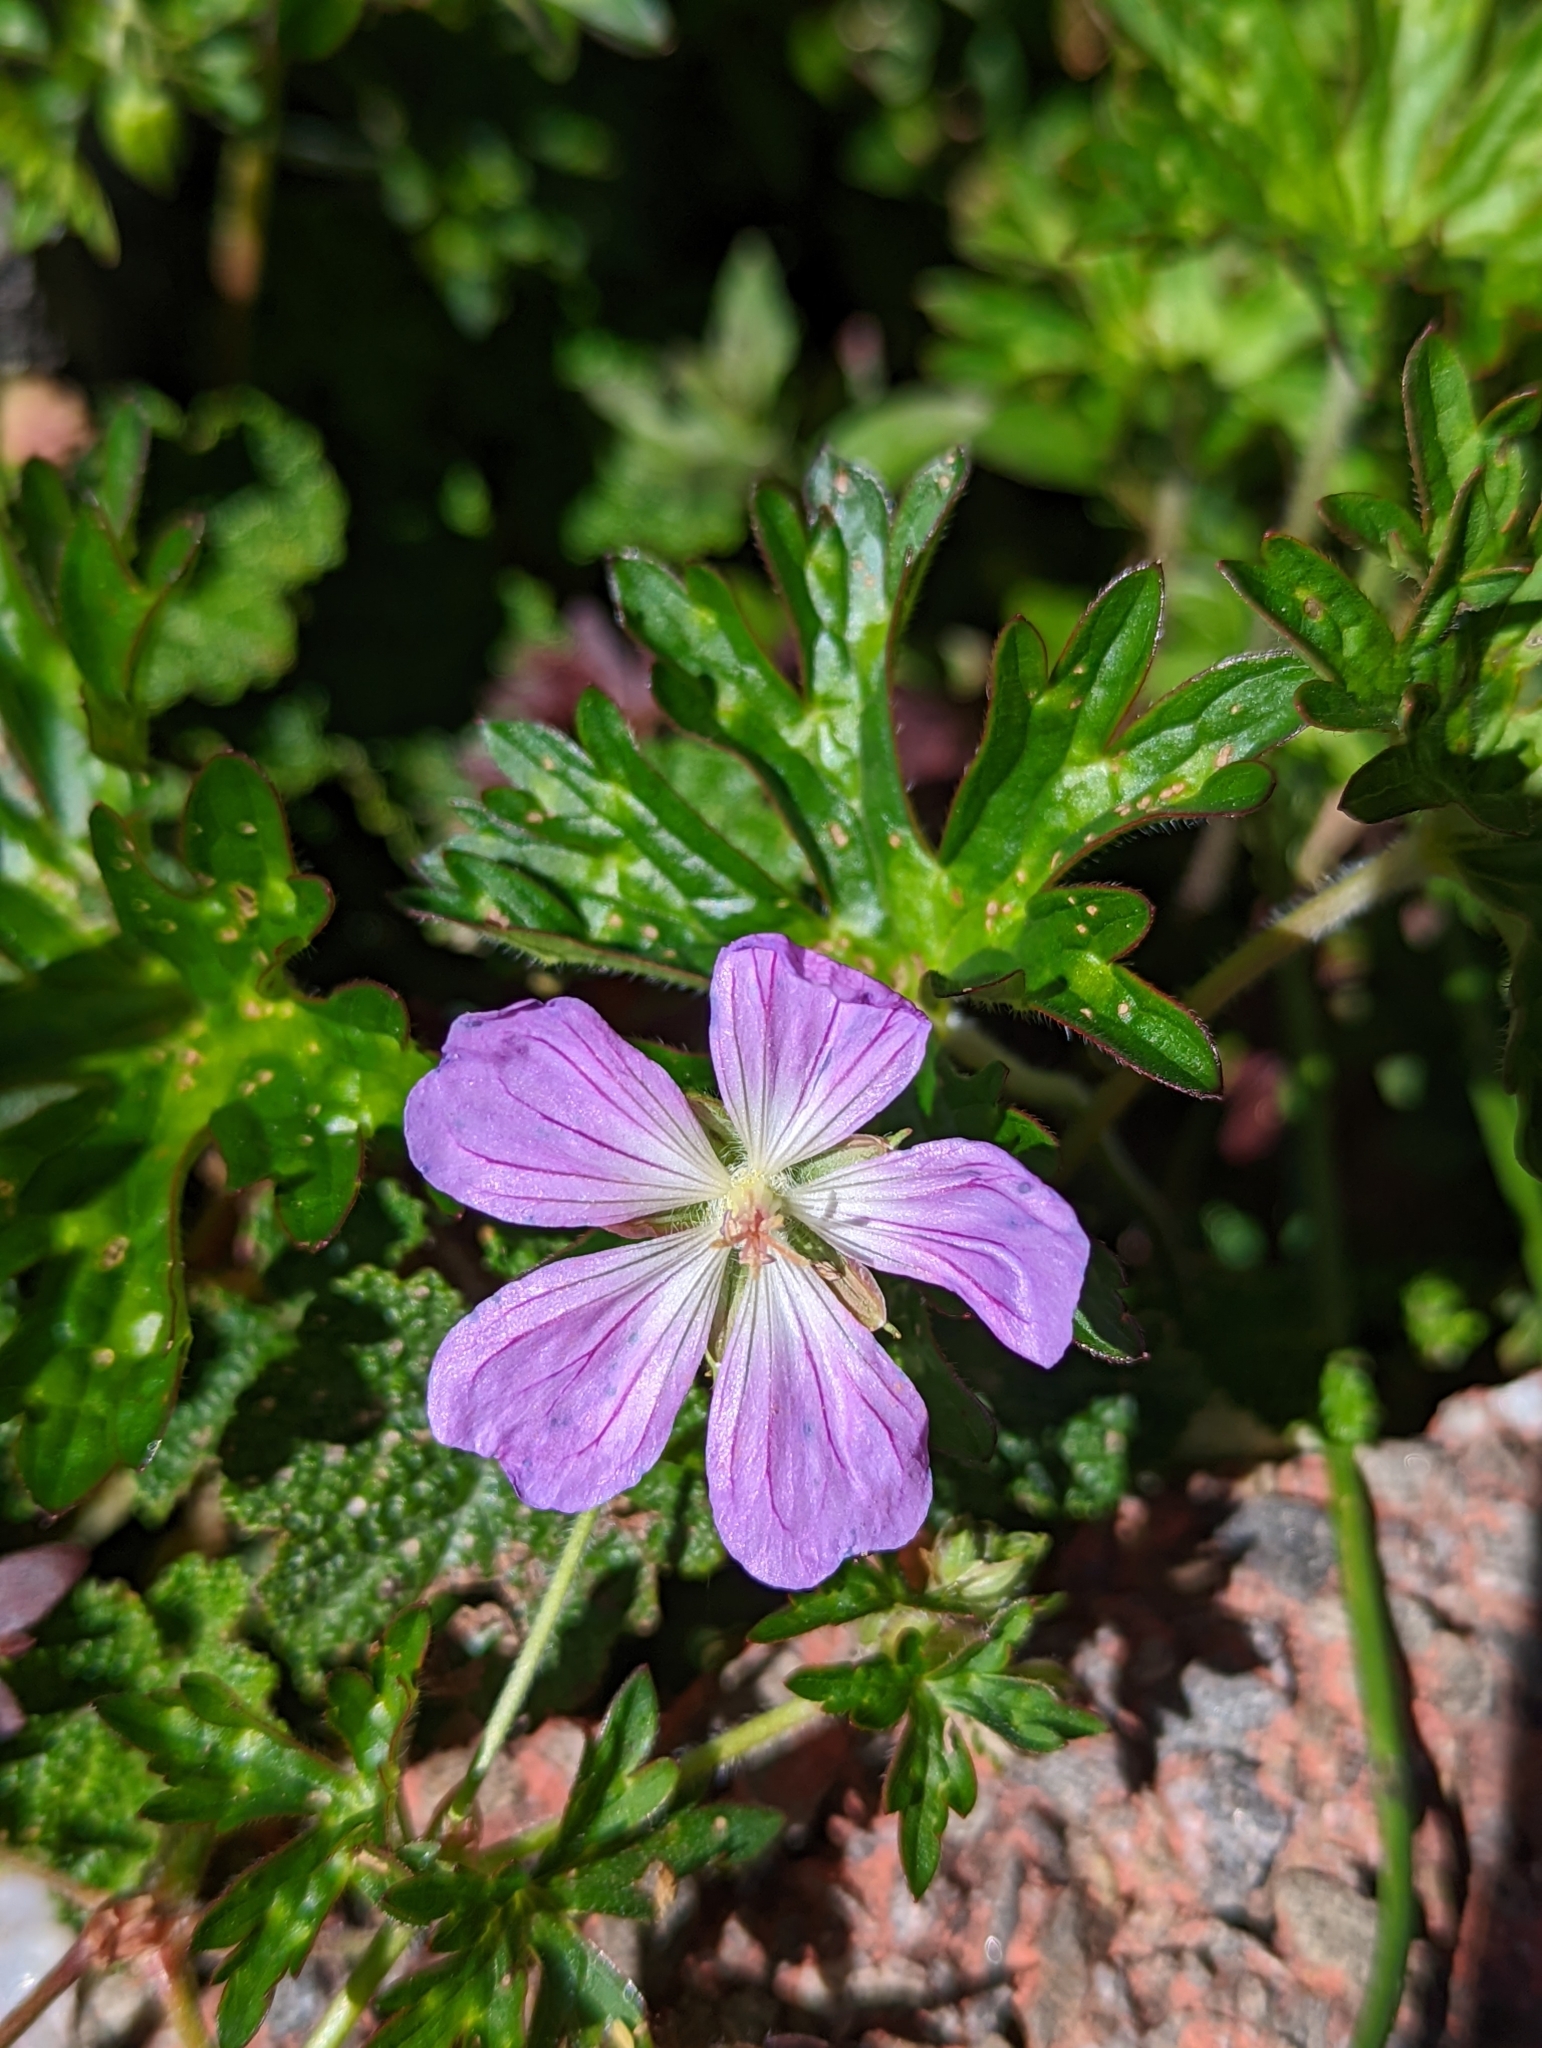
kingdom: Plantae
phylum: Tracheophyta
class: Magnoliopsida
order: Geraniales
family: Geraniaceae
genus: Geranium
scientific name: Geranium hayatanum
